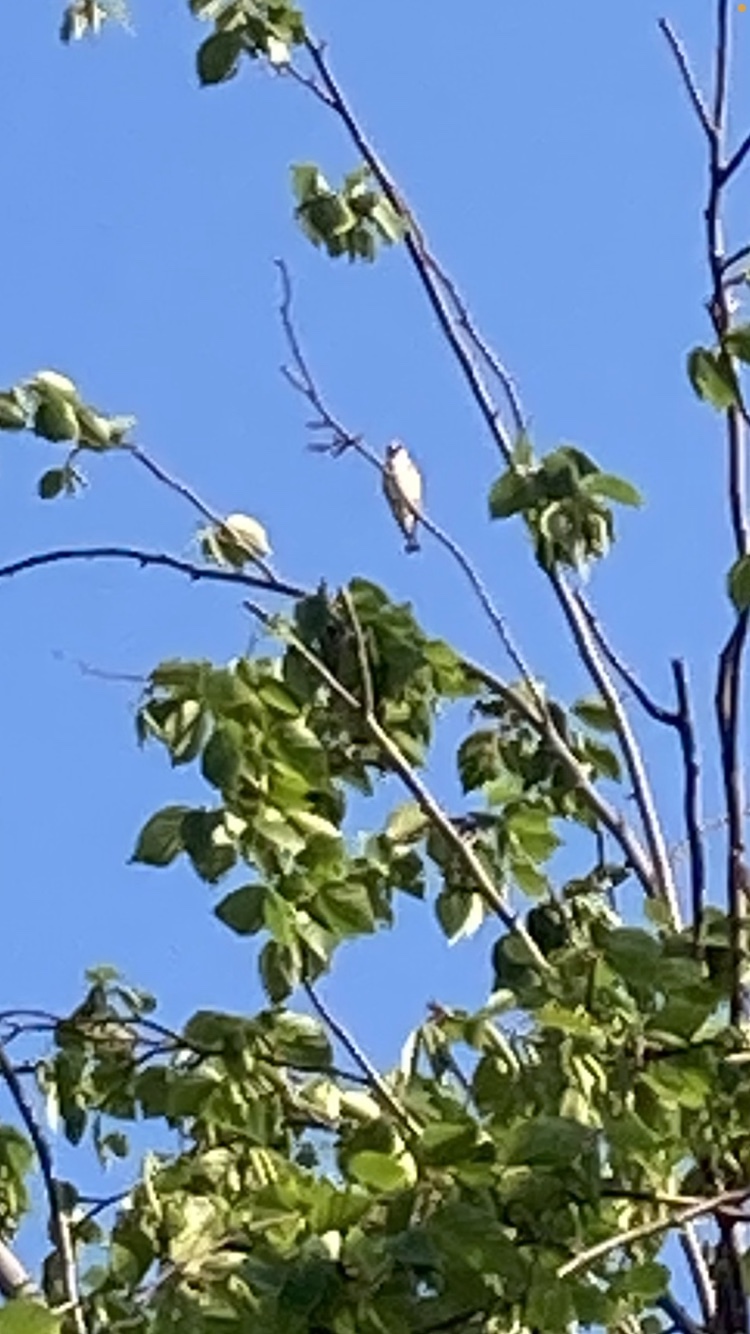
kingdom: Animalia
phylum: Chordata
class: Aves
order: Passeriformes
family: Fringillidae
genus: Carduelis
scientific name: Carduelis carduelis
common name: European goldfinch
